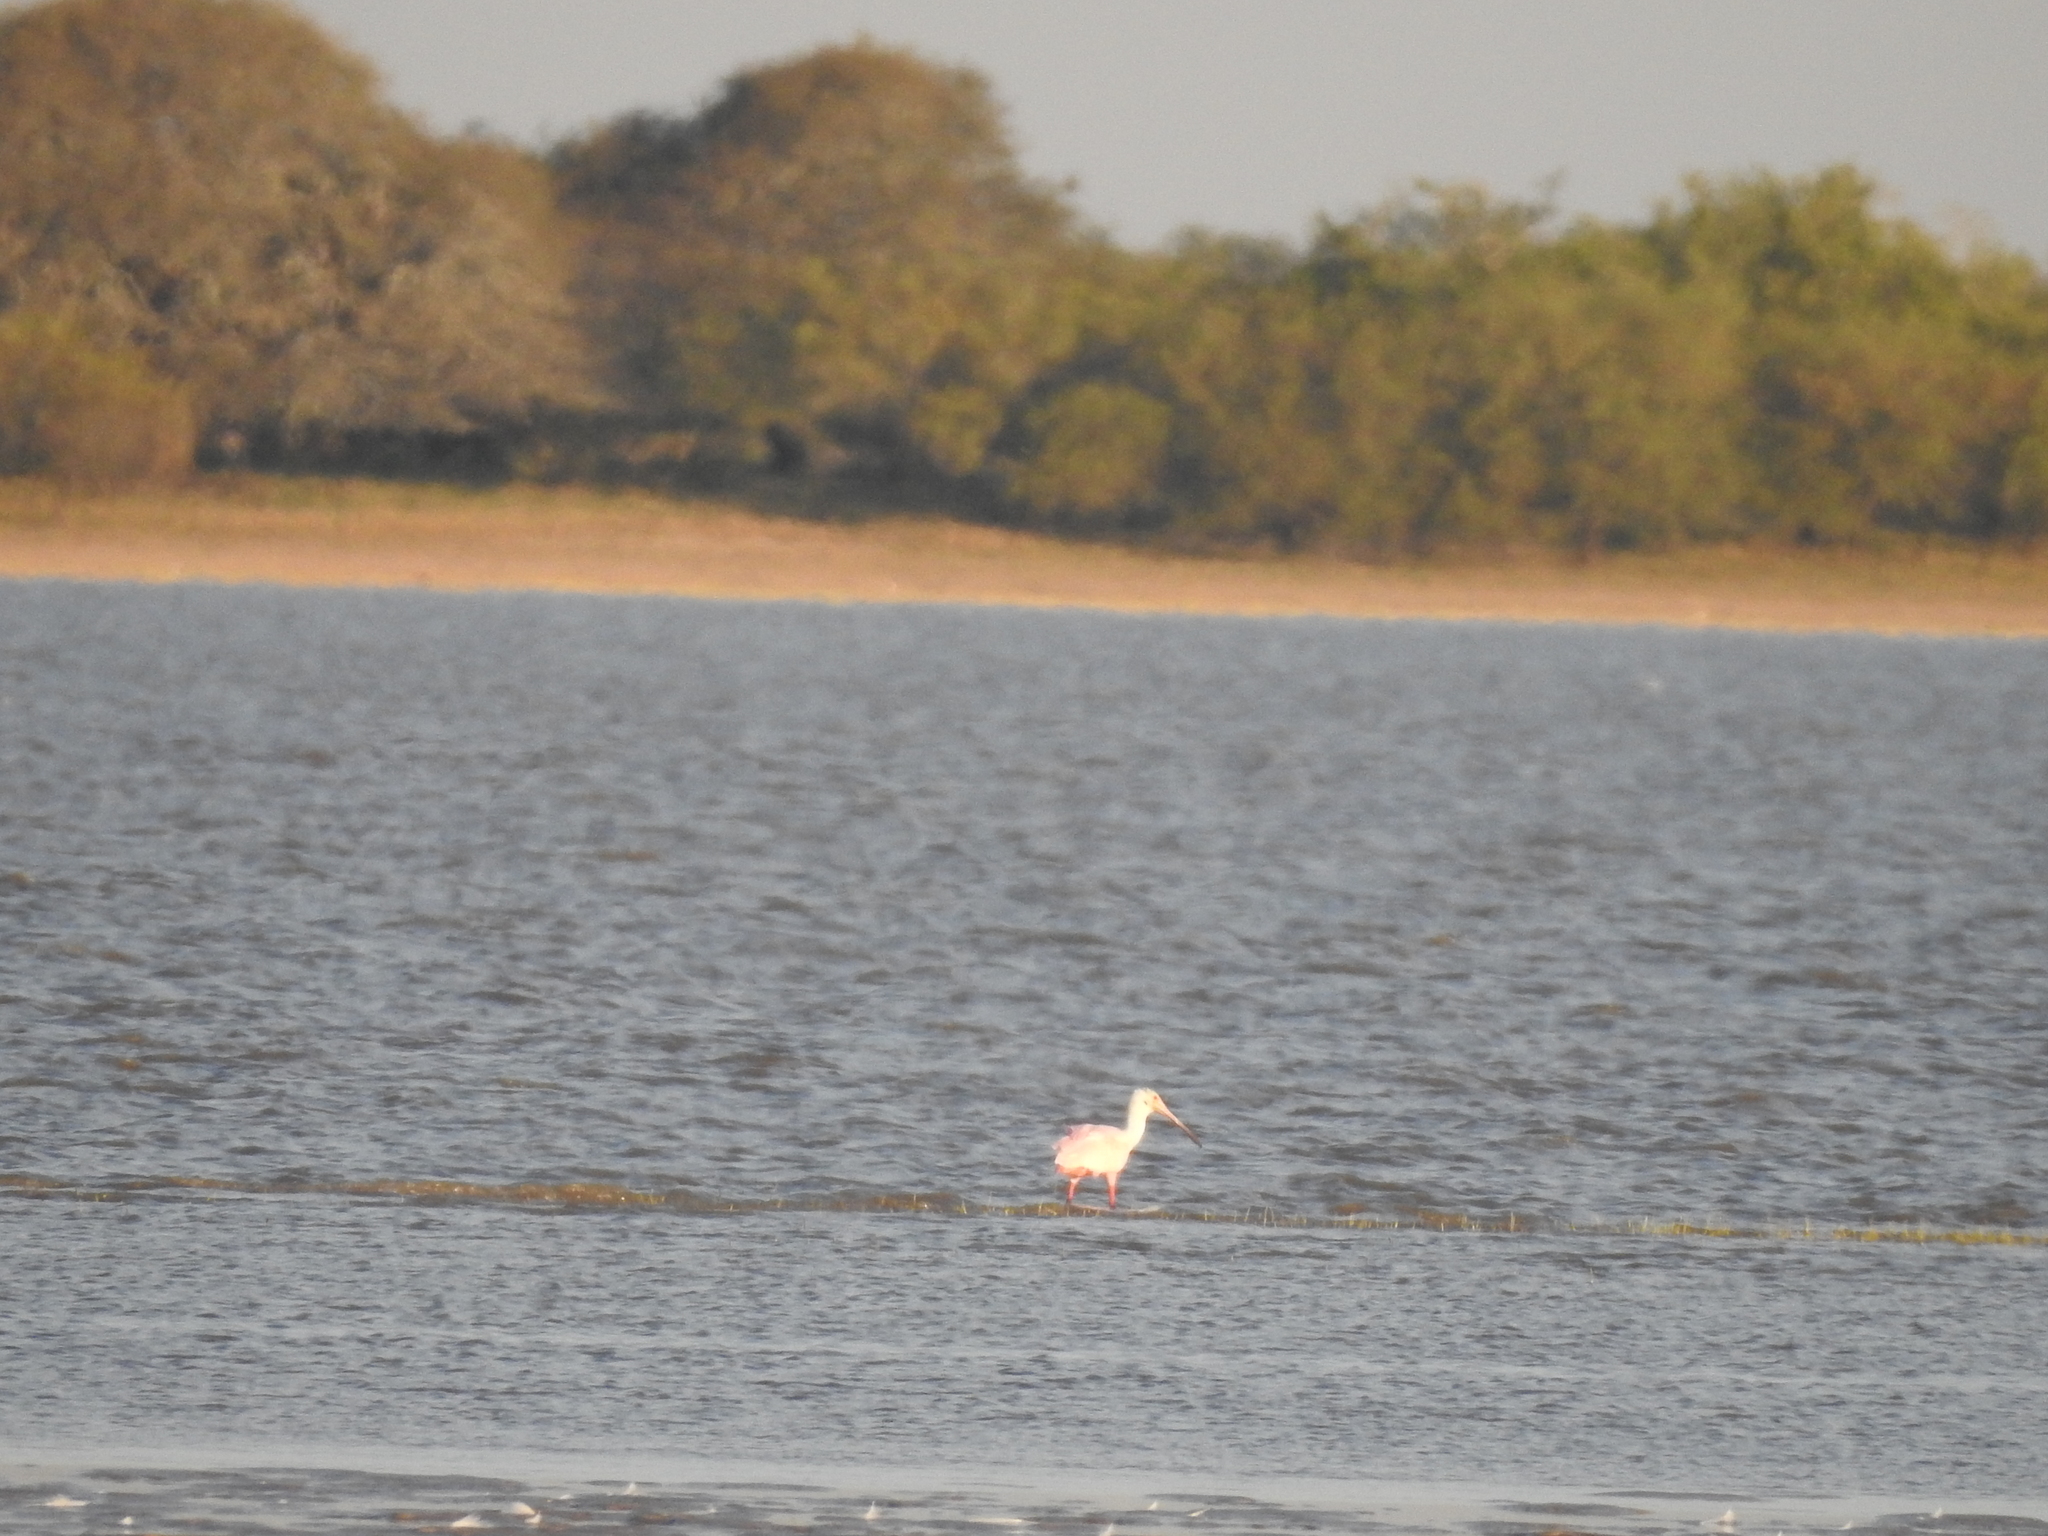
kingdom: Animalia
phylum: Chordata
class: Aves
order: Pelecaniformes
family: Threskiornithidae
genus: Platalea
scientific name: Platalea ajaja
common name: Roseate spoonbill
